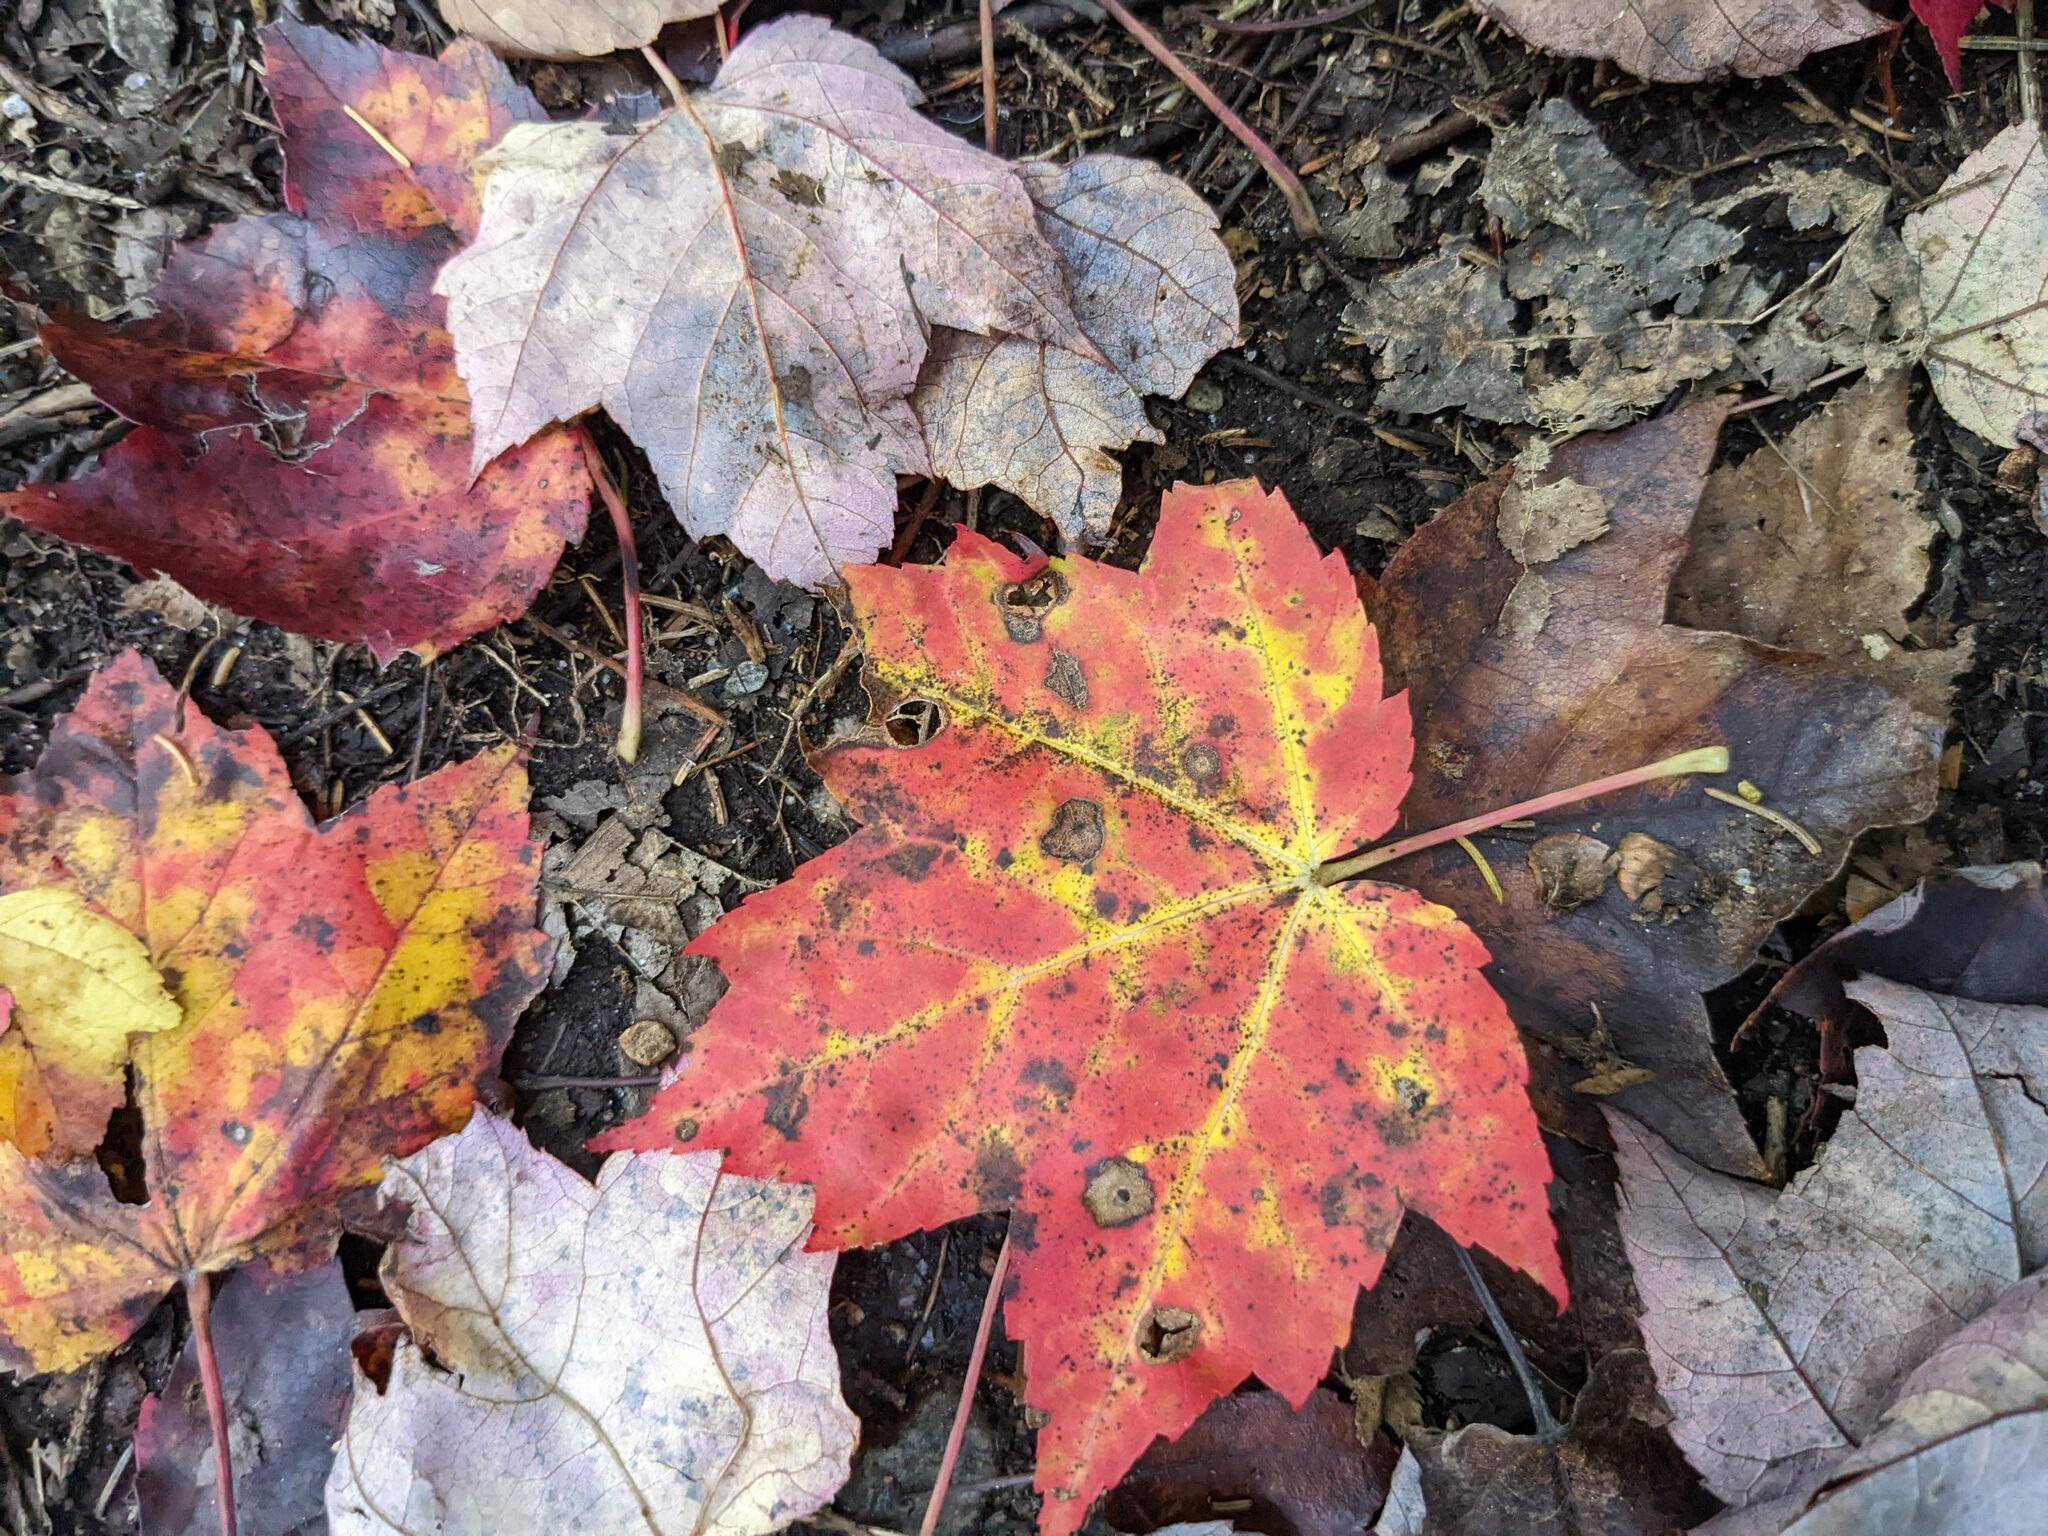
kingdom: Plantae
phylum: Tracheophyta
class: Magnoliopsida
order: Sapindales
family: Sapindaceae
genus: Acer
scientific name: Acer rubrum
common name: Red maple
